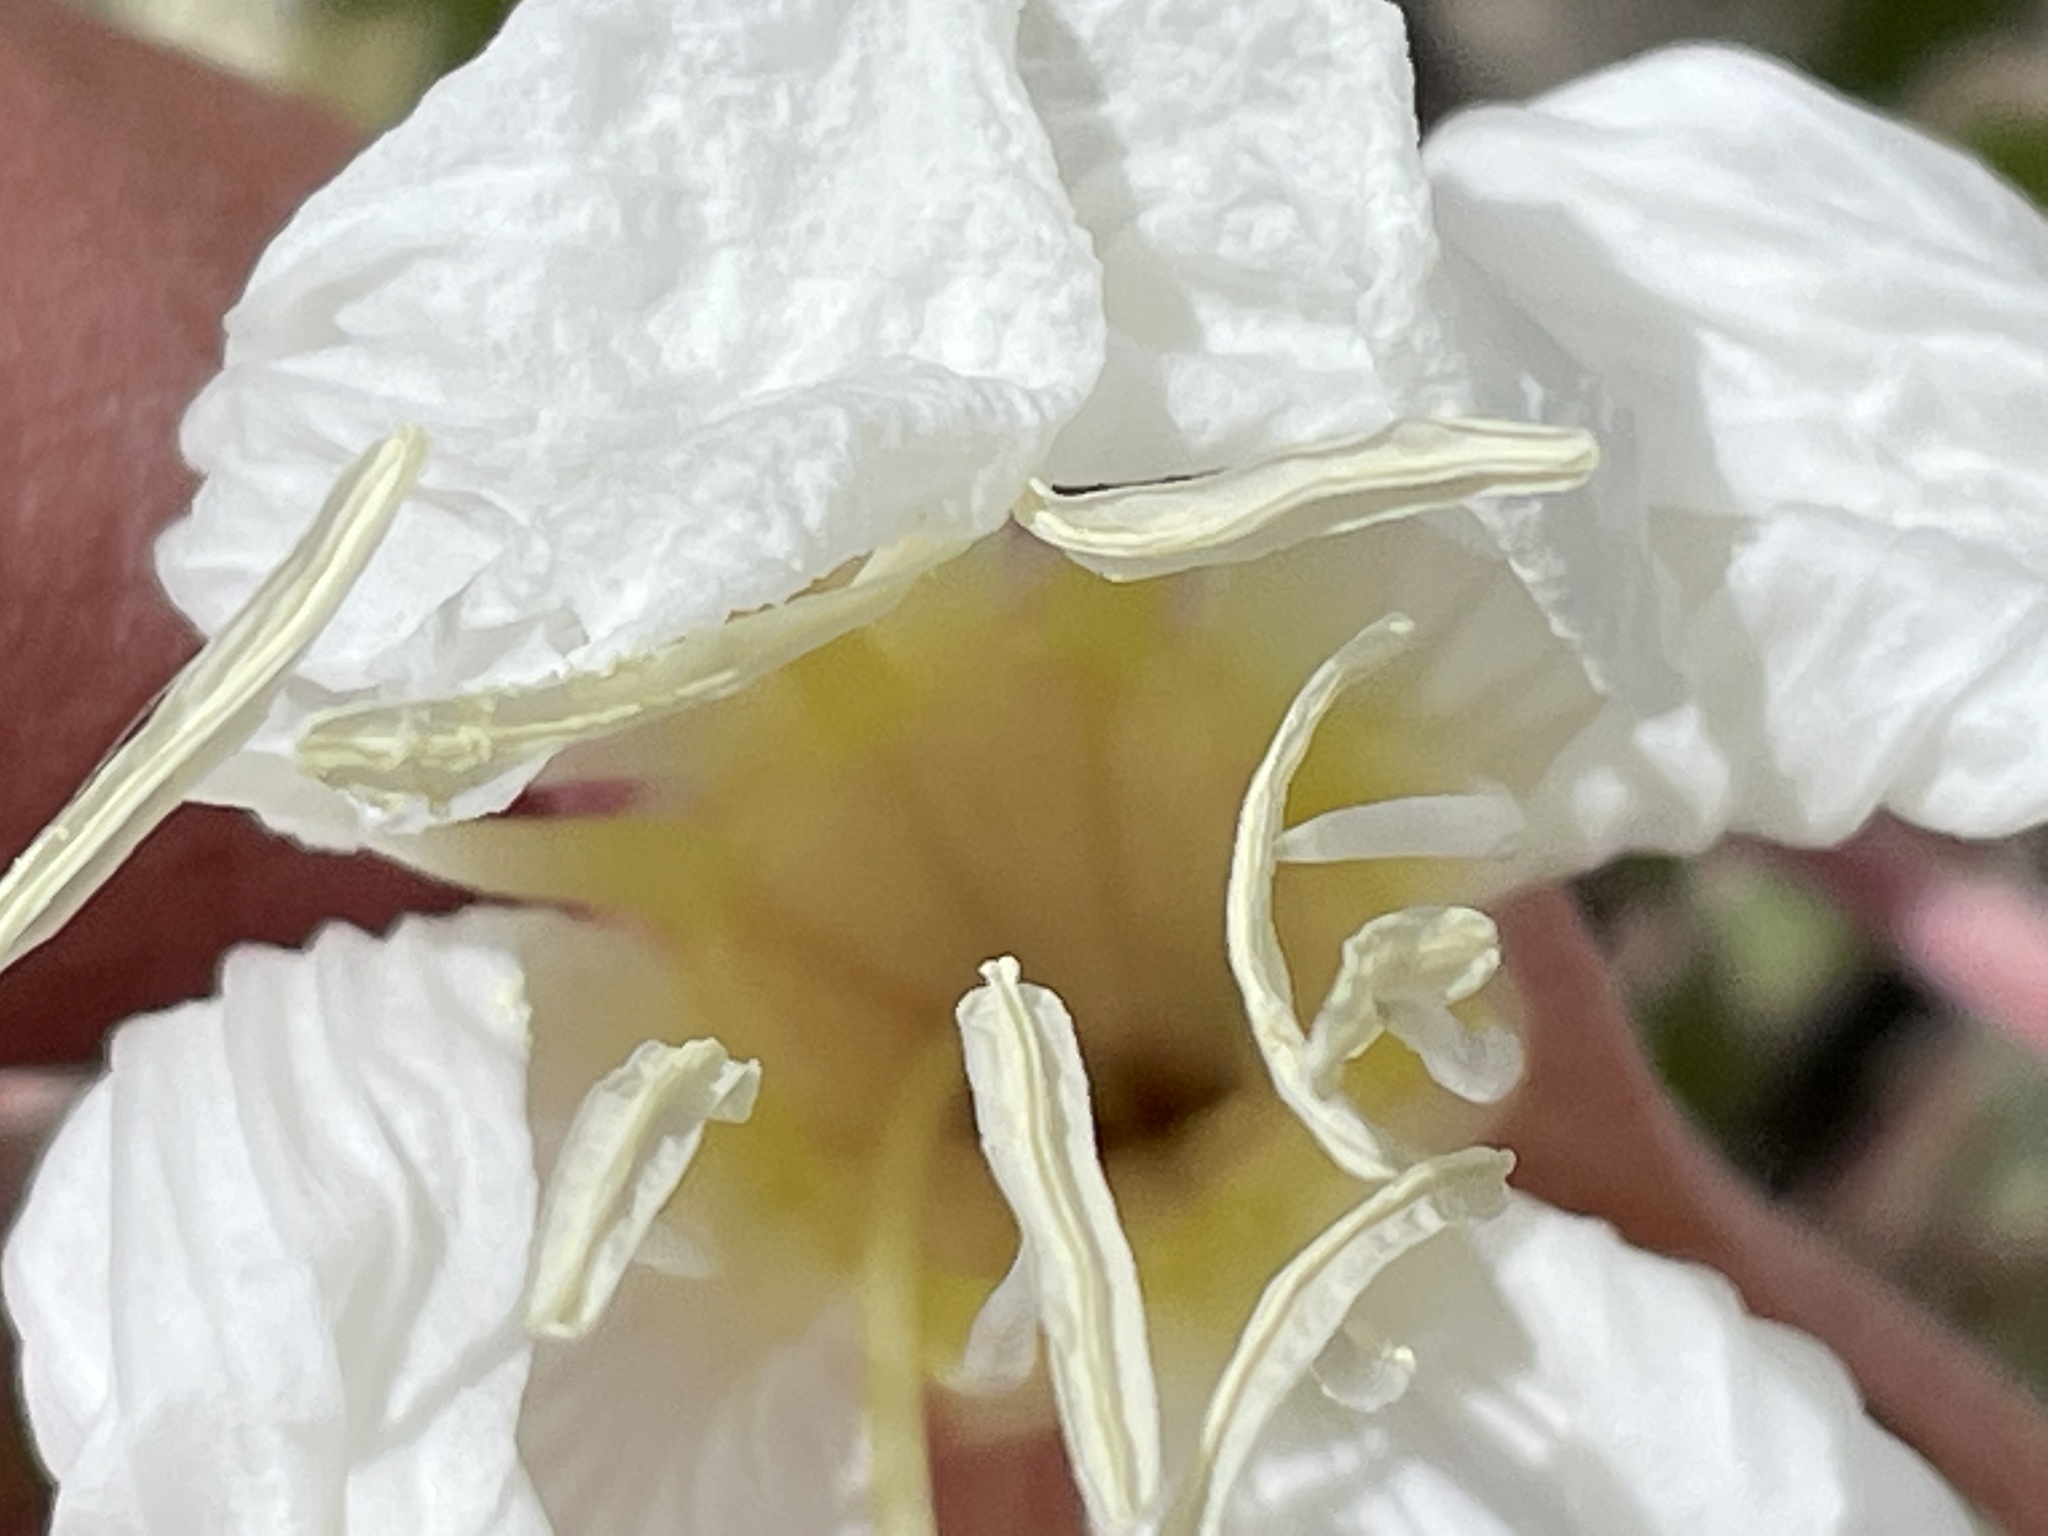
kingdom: Plantae
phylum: Tracheophyta
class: Magnoliopsida
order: Myrtales
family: Onagraceae
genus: Oenothera
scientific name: Oenothera cespitosa
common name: Tufted evening-primrose
